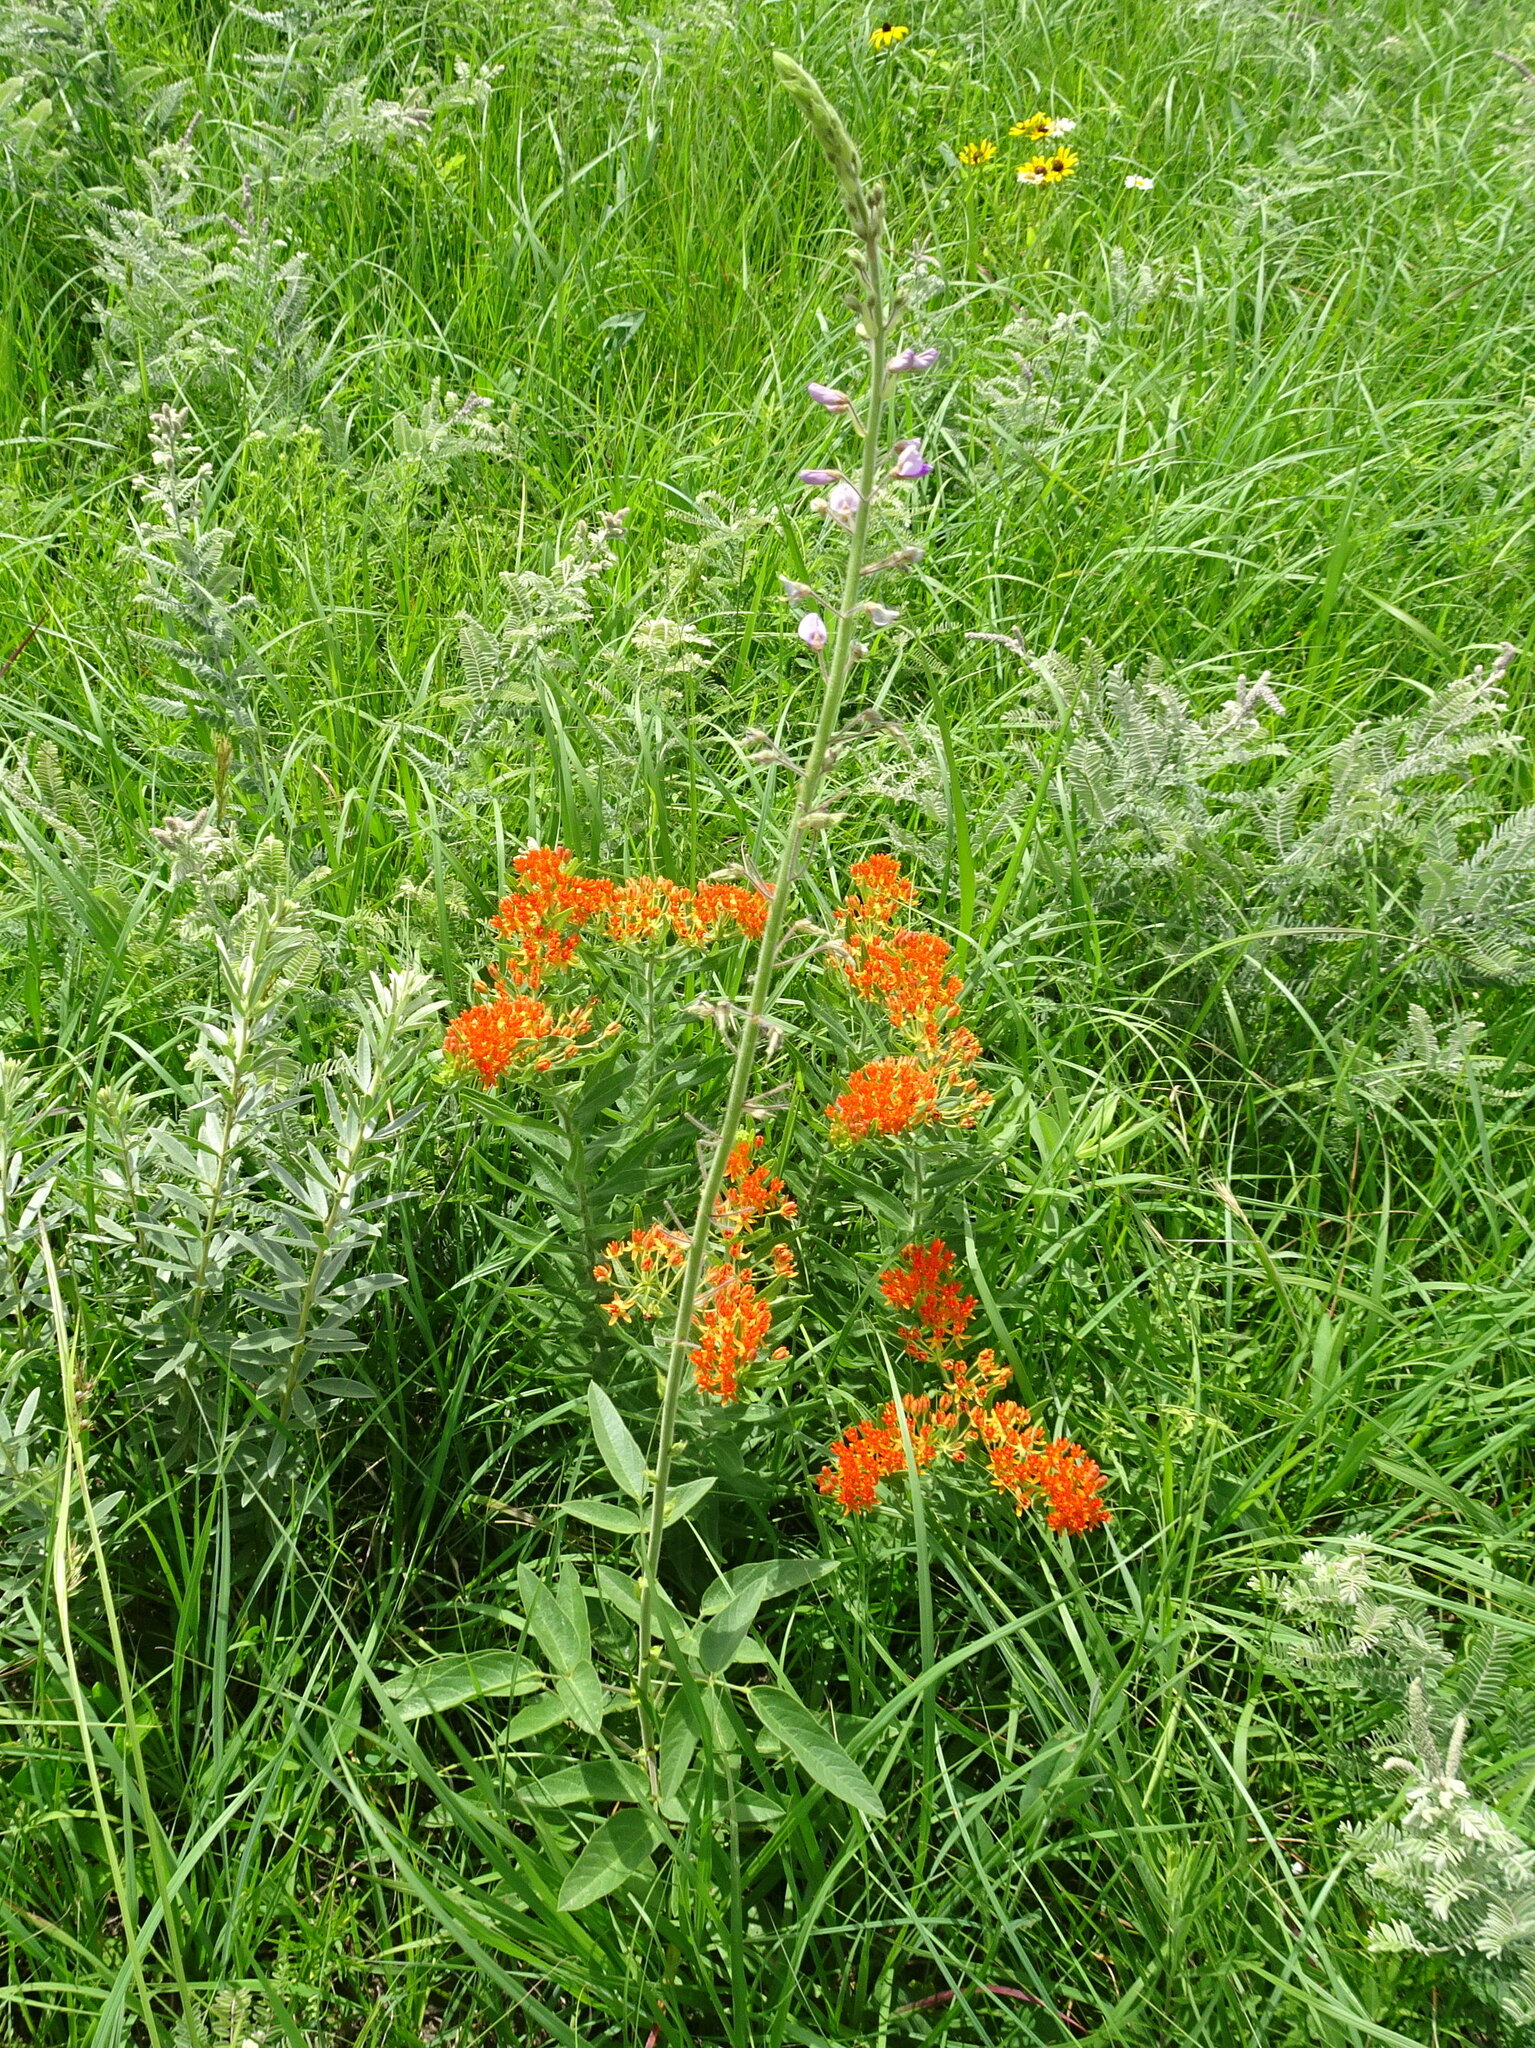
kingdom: Plantae
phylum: Tracheophyta
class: Magnoliopsida
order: Fabales
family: Fabaceae
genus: Desmodium
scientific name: Desmodium illinoense
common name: Illinois tick-clover
